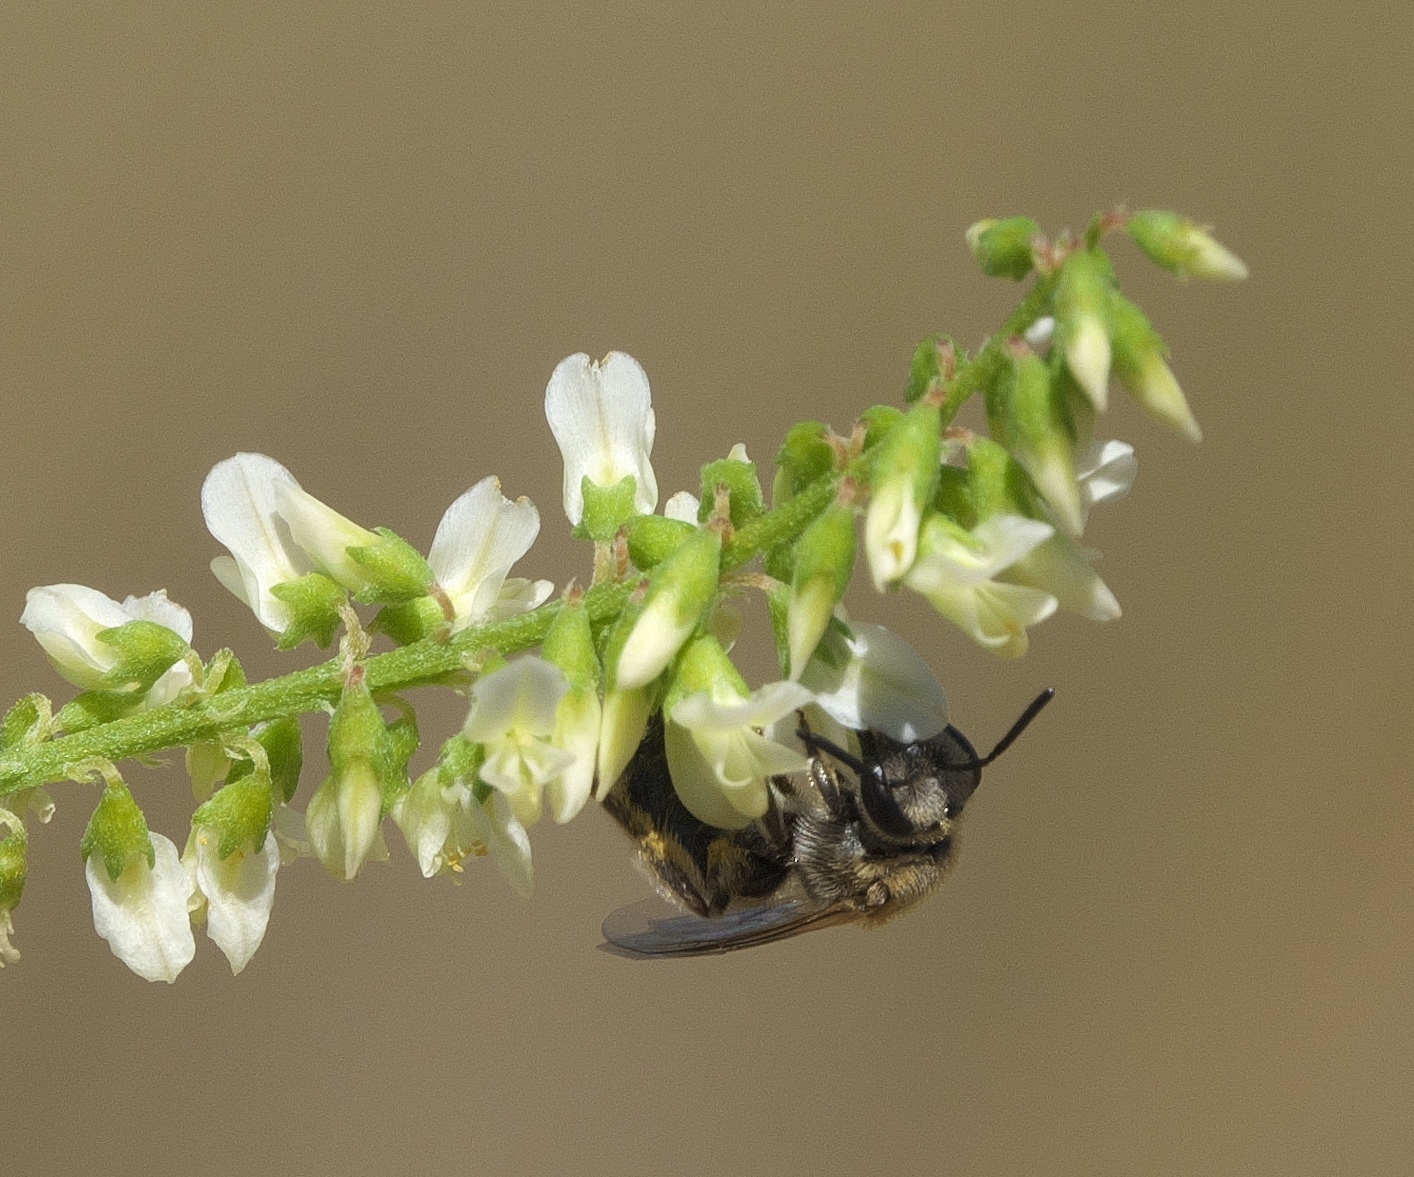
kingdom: Animalia
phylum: Arthropoda
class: Insecta
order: Hymenoptera
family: Halictidae
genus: Lasioglossum
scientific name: Lasioglossum sisymbrii
